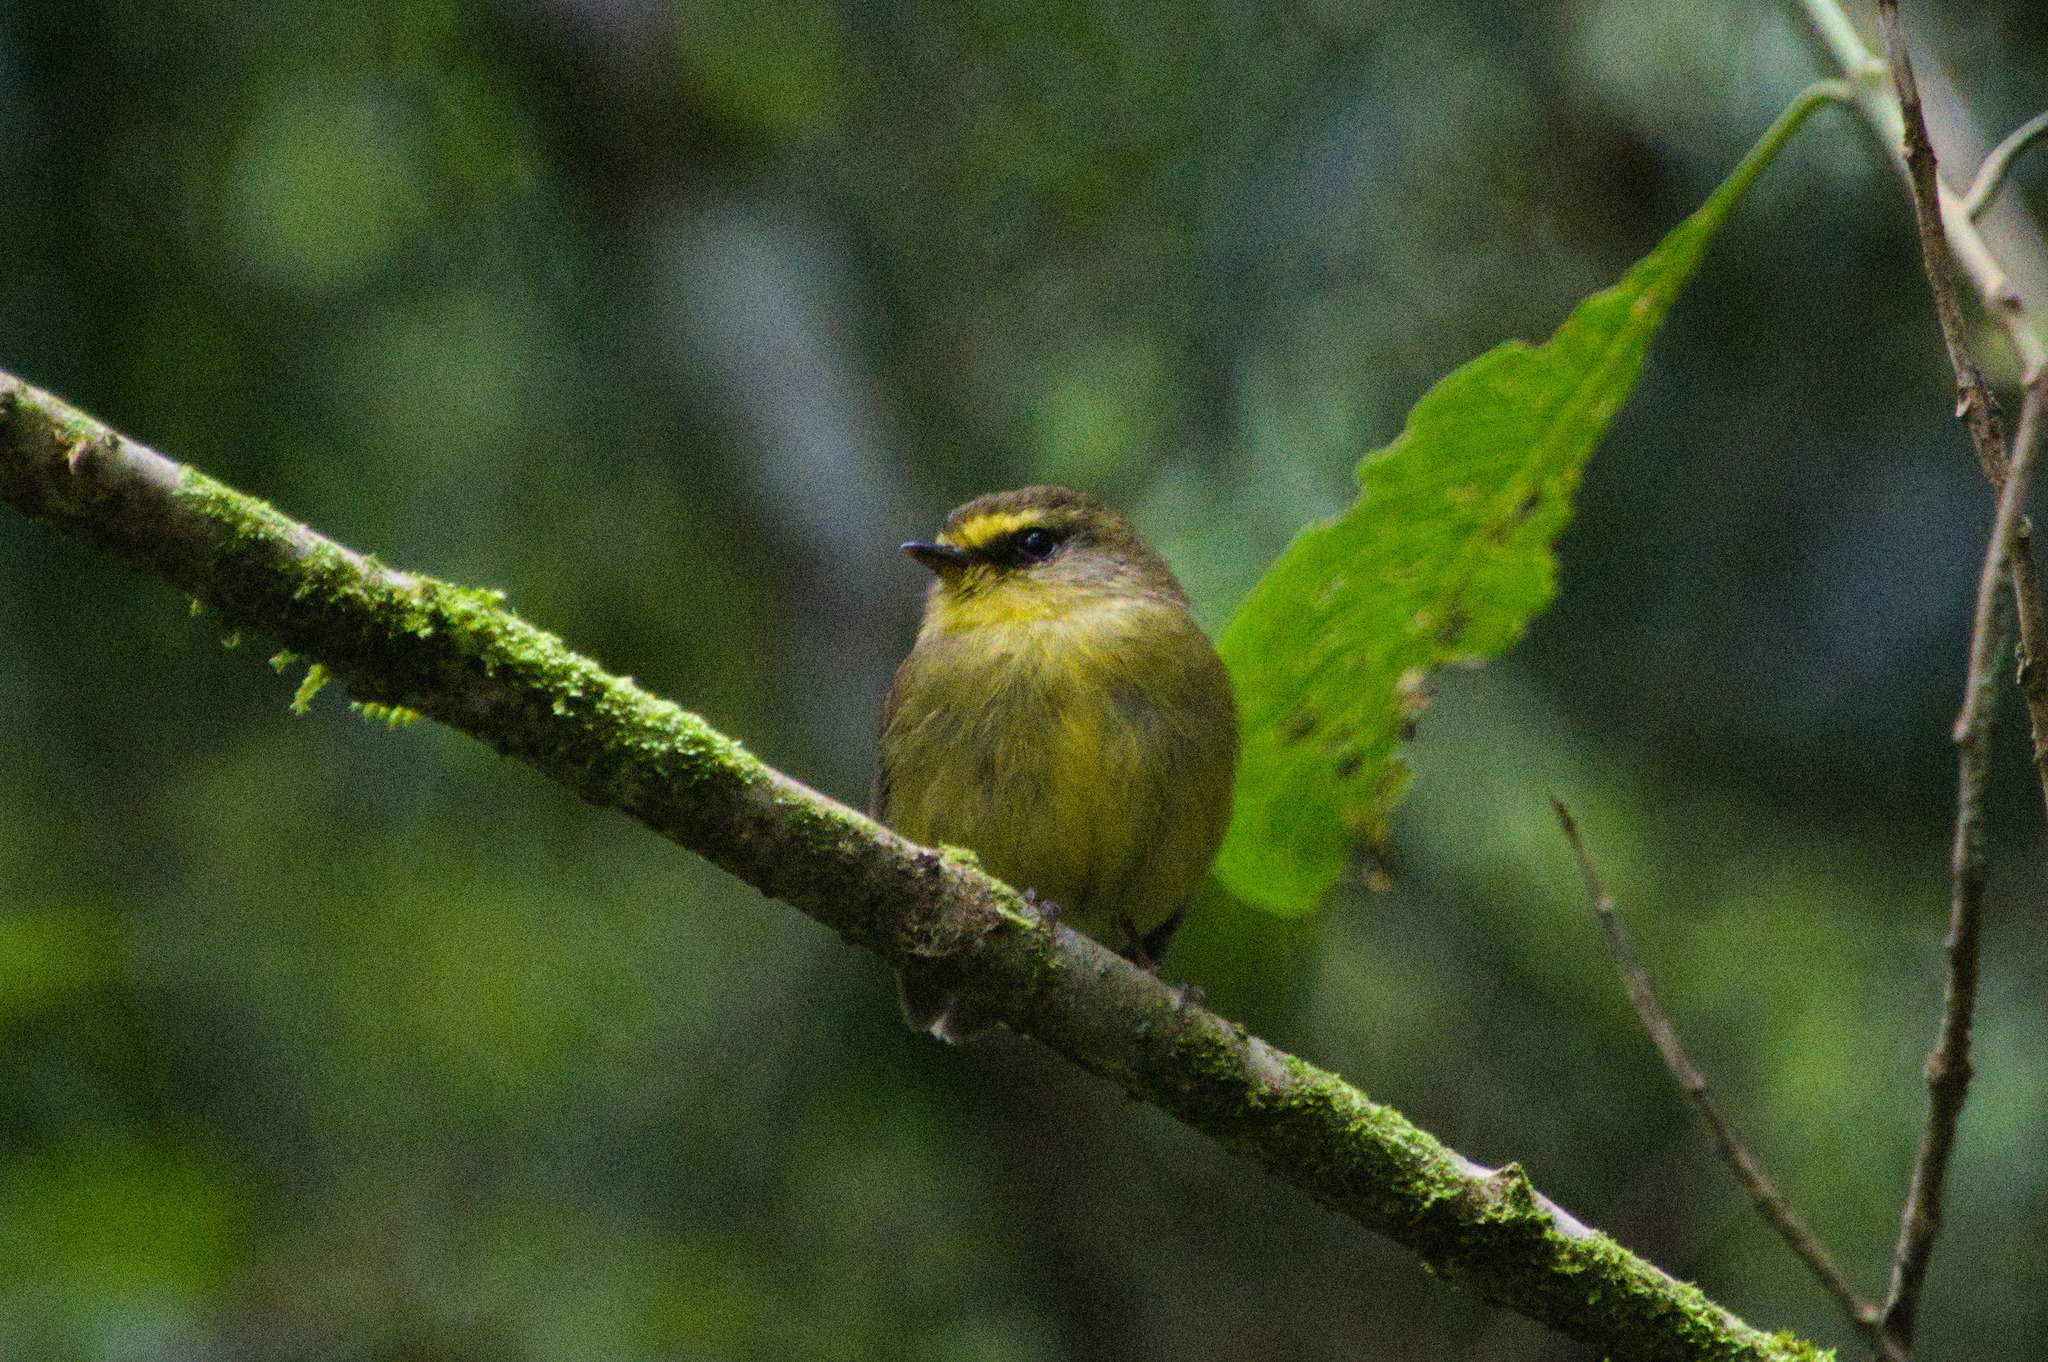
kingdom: Animalia
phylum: Chordata
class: Aves
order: Passeriformes
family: Tyrannidae
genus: Ochthoeca
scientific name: Ochthoeca diadema
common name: Yellow-bellied chat-tyrant
